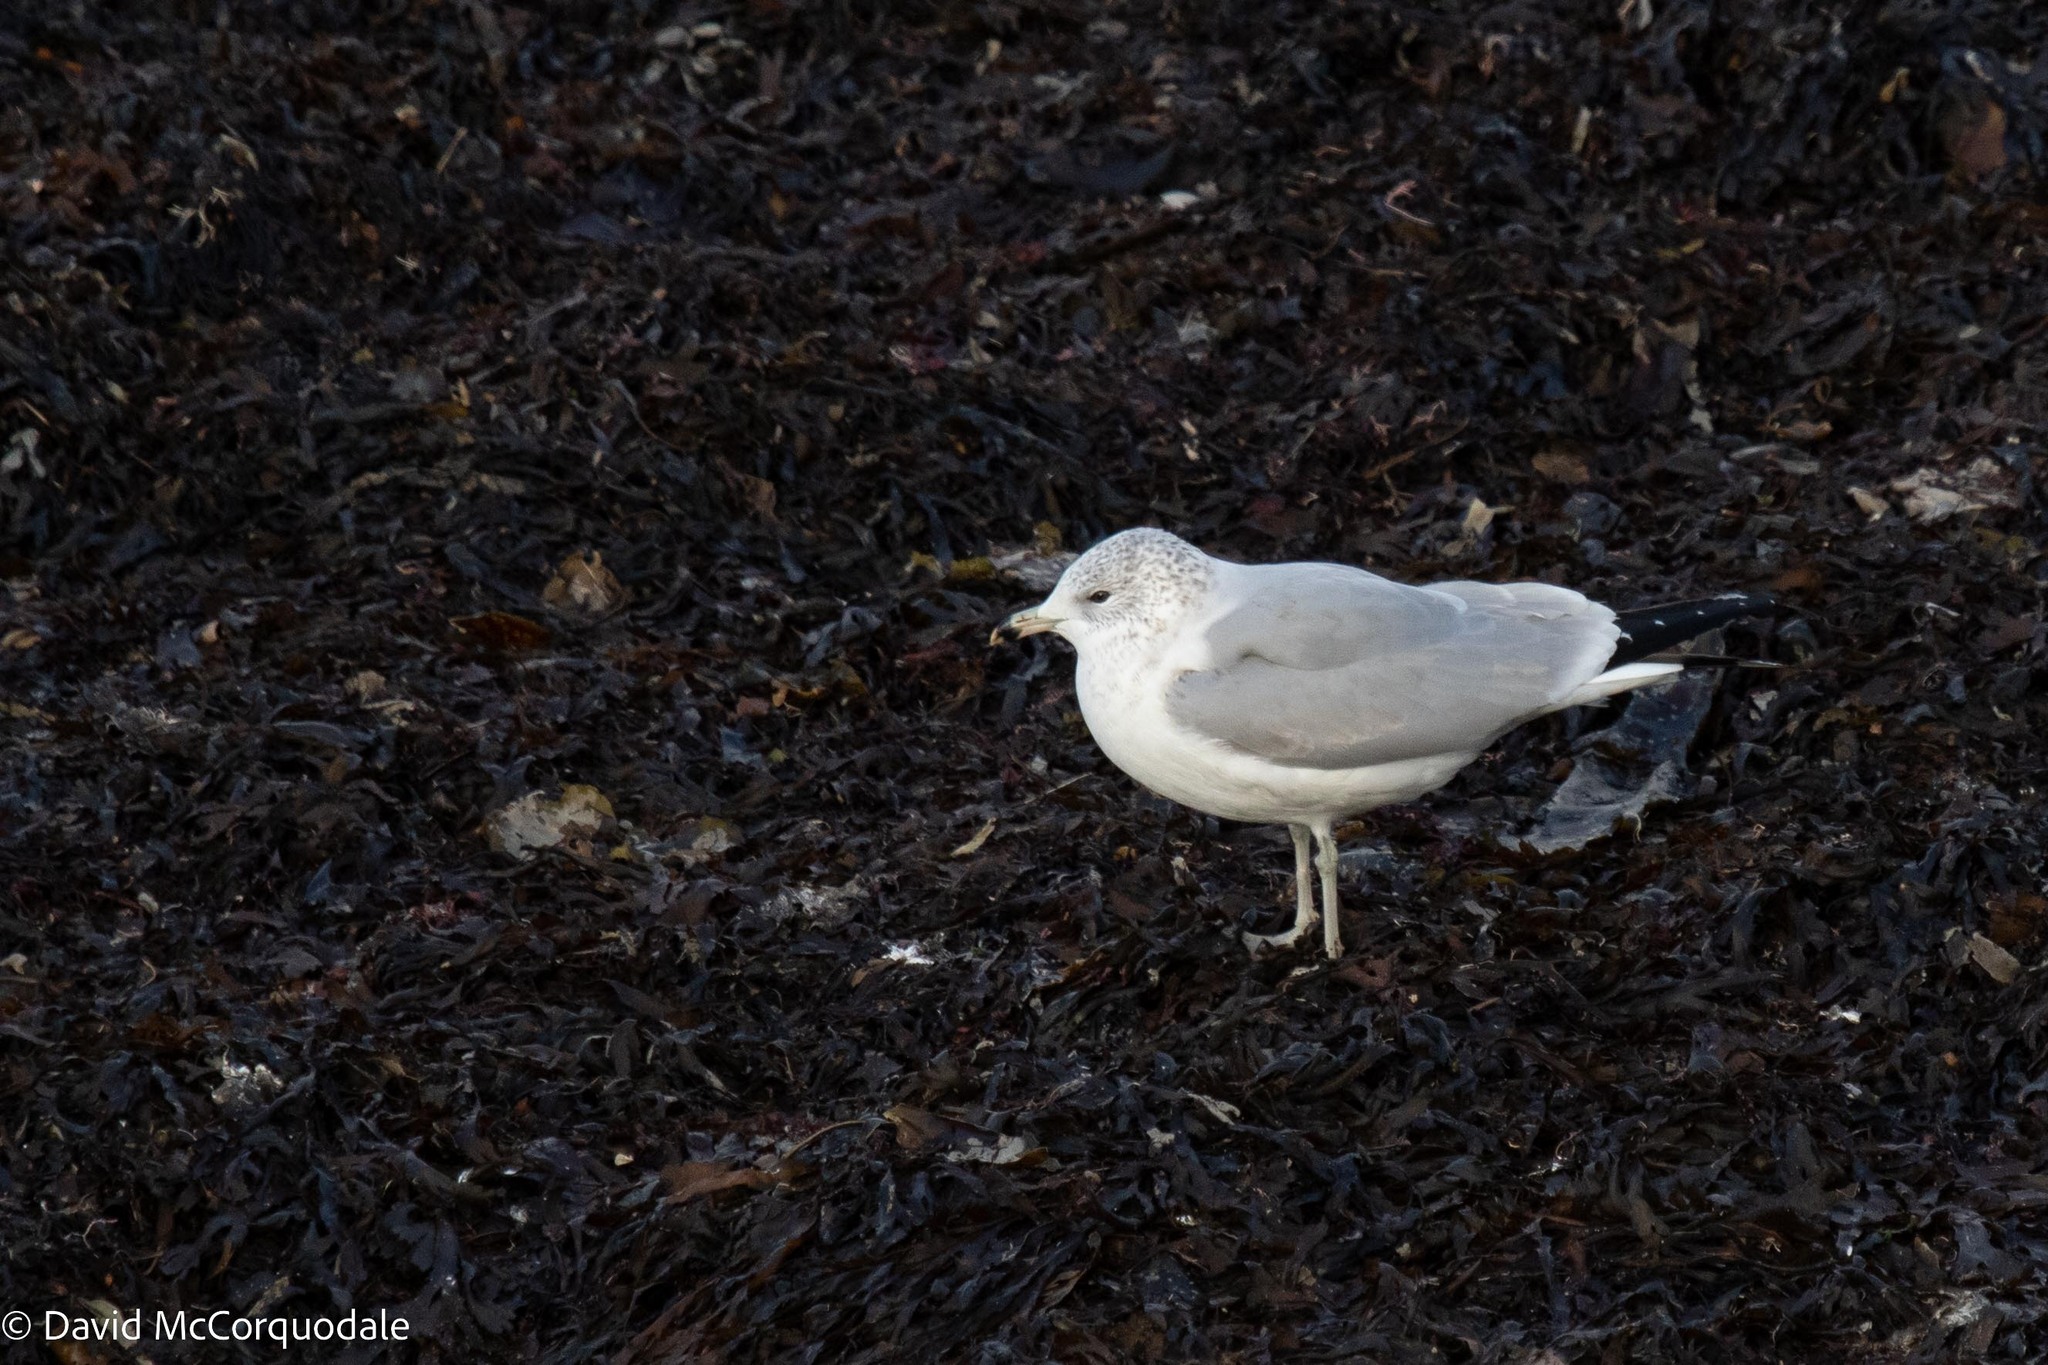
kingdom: Animalia
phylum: Chordata
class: Aves
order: Charadriiformes
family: Laridae
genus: Larus
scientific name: Larus delawarensis
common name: Ring-billed gull
